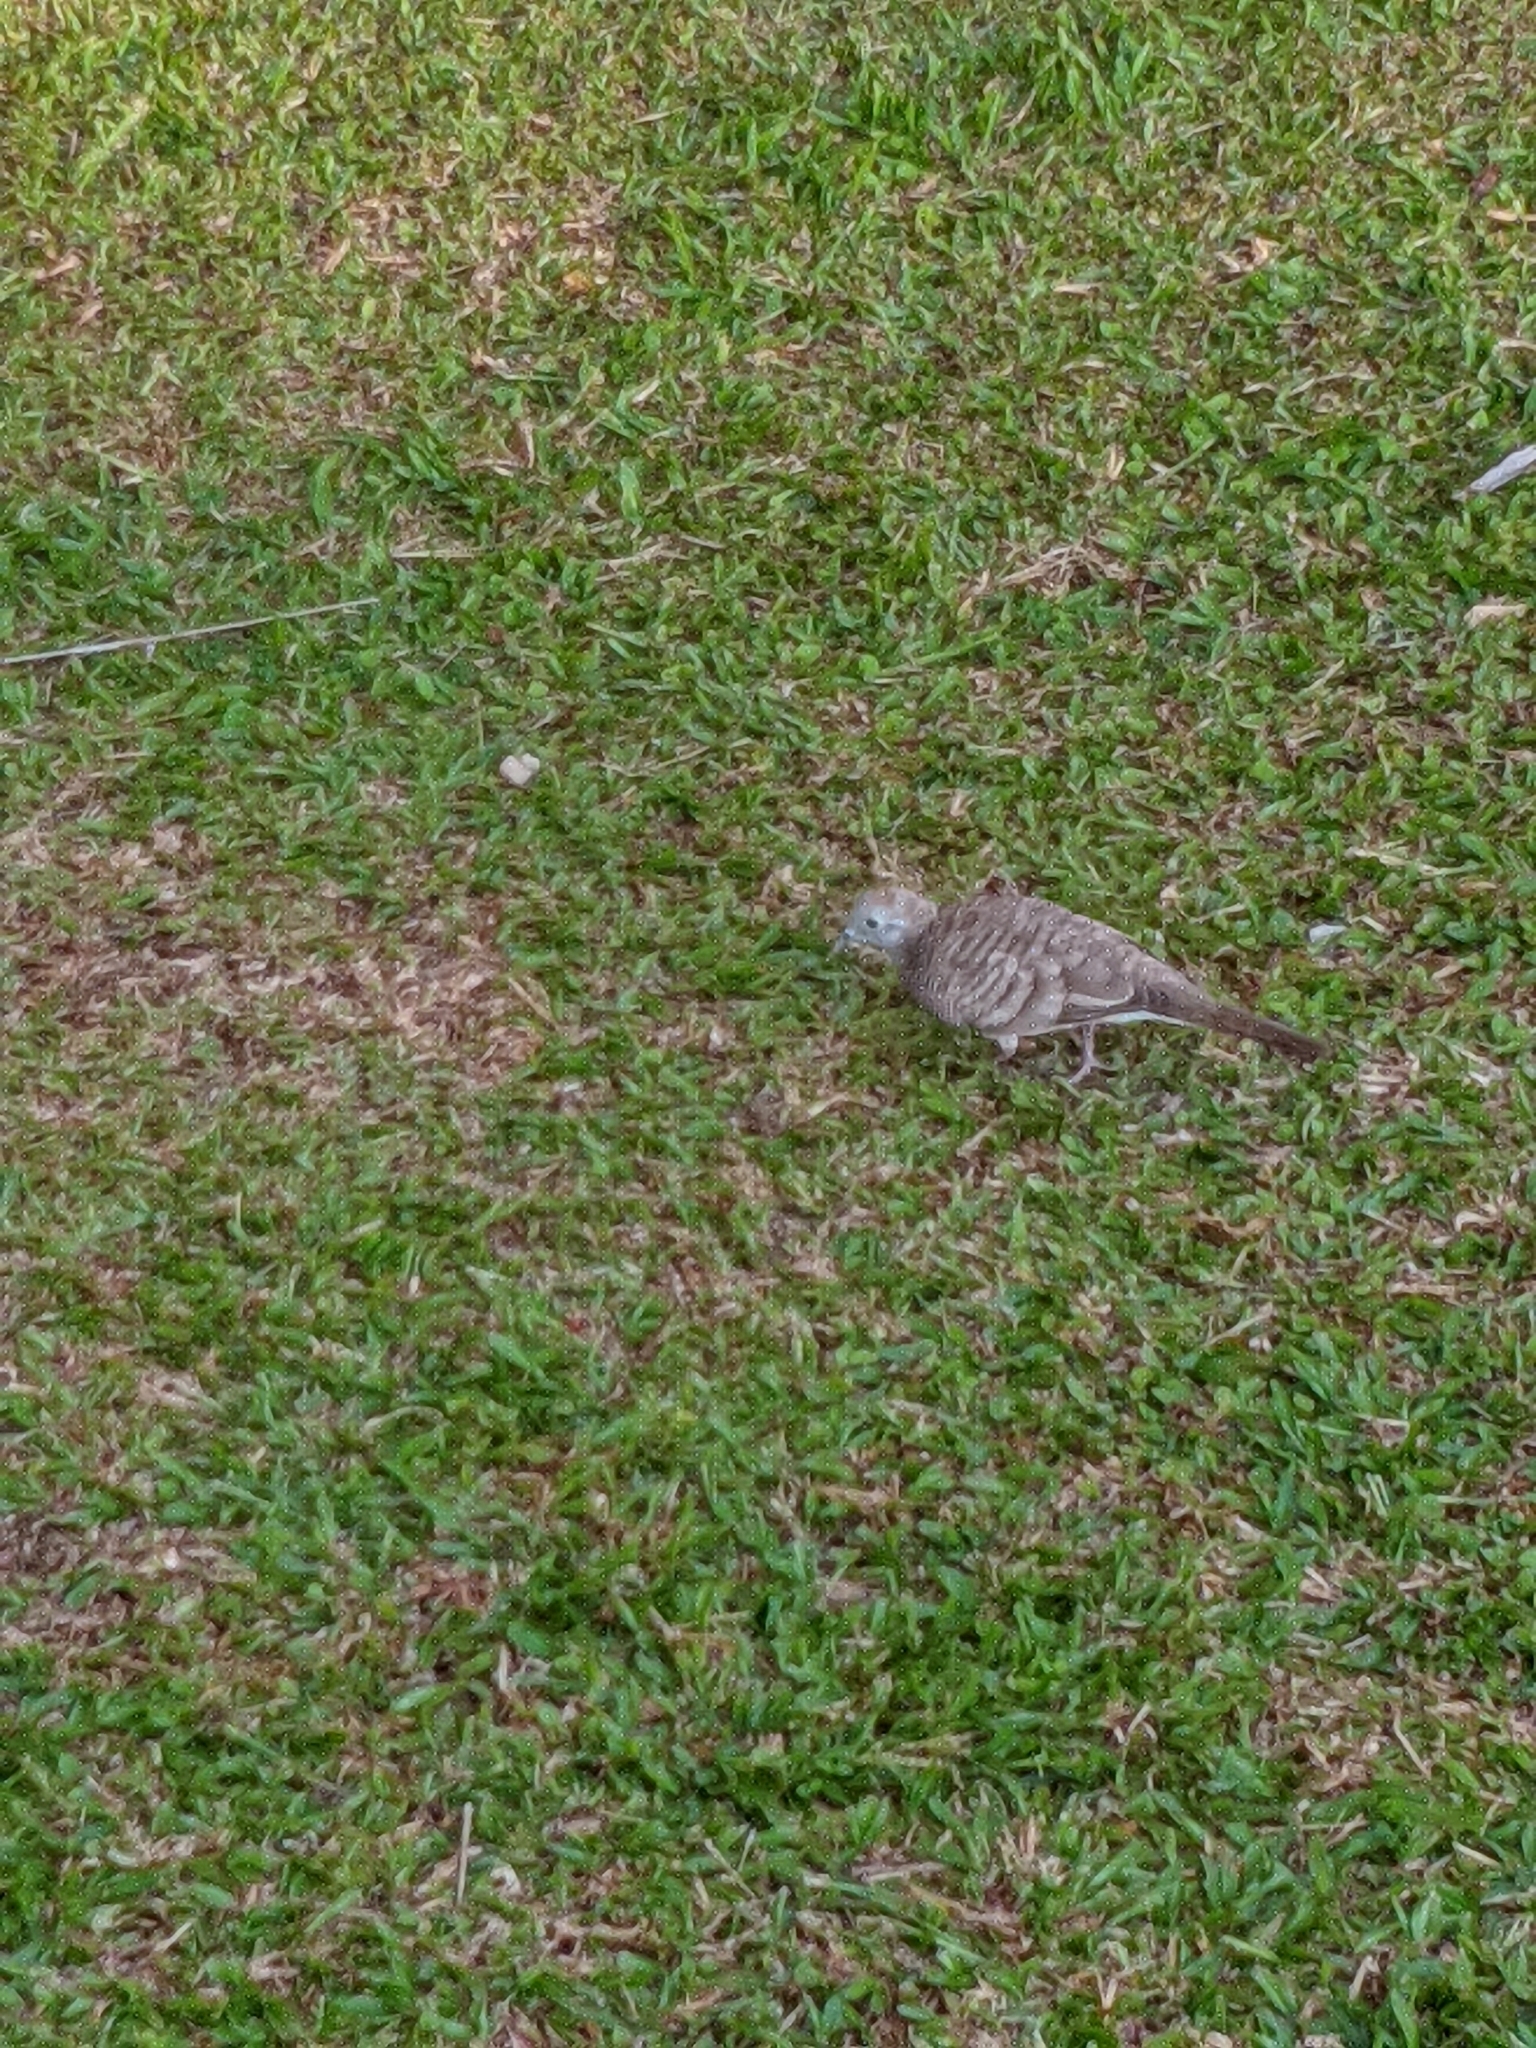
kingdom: Animalia
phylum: Chordata
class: Aves
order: Columbiformes
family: Columbidae
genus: Geopelia
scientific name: Geopelia striata
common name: Zebra dove
